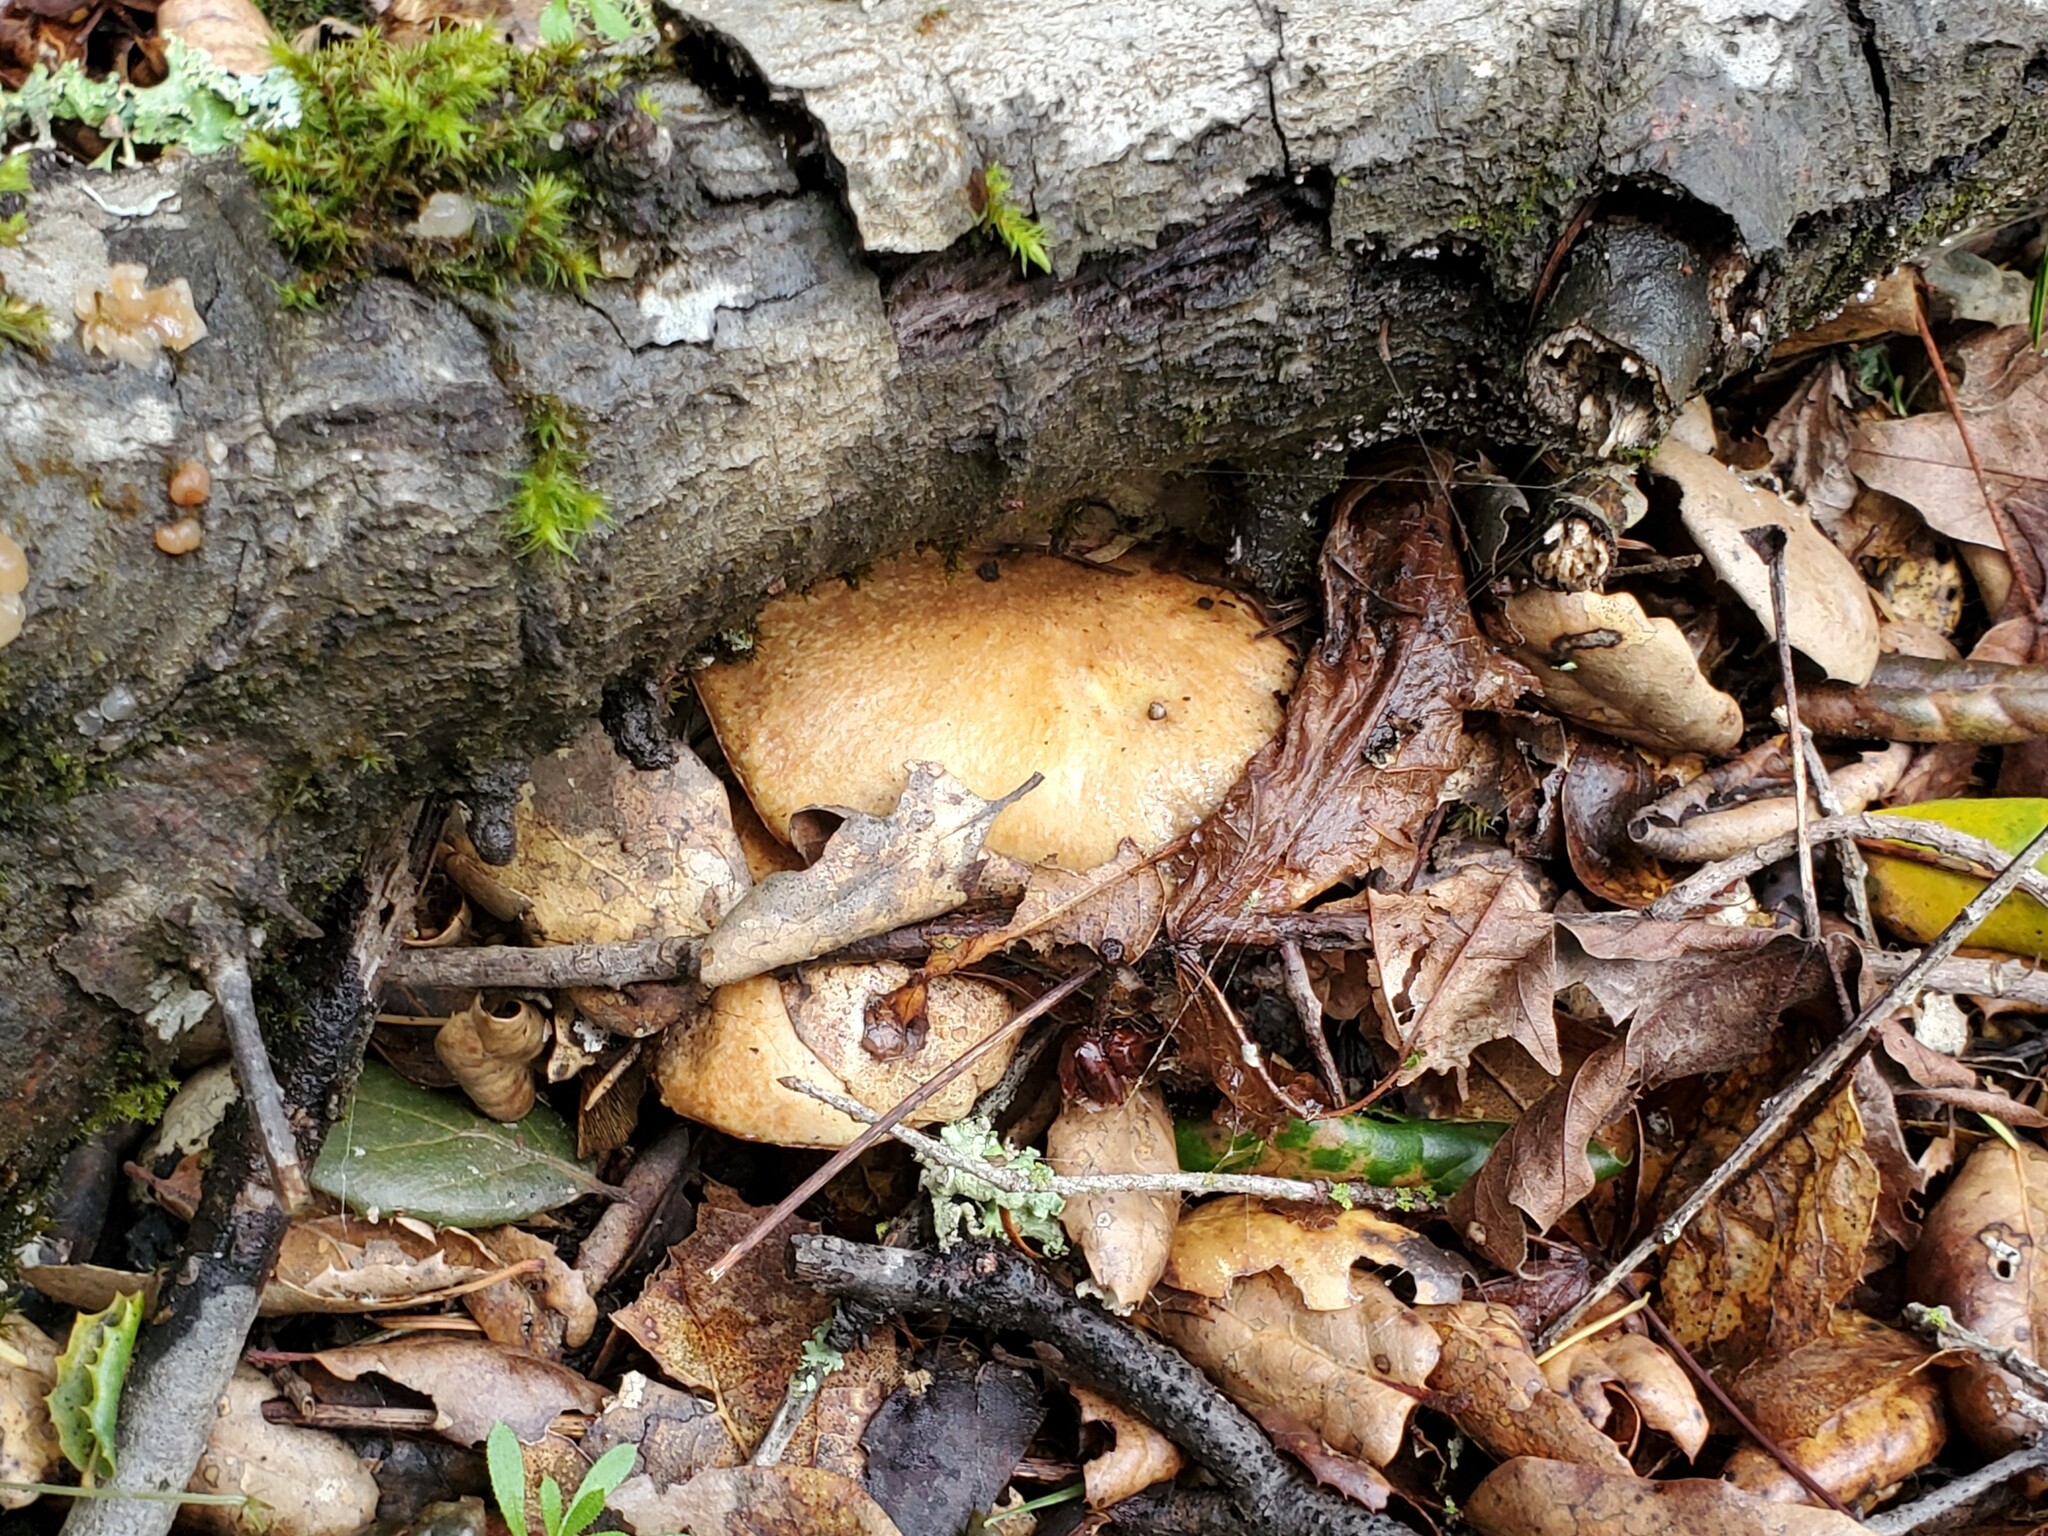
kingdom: Fungi
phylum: Basidiomycota
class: Agaricomycetes
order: Boletales
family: Suillaceae
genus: Suillus
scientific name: Suillus caerulescens
